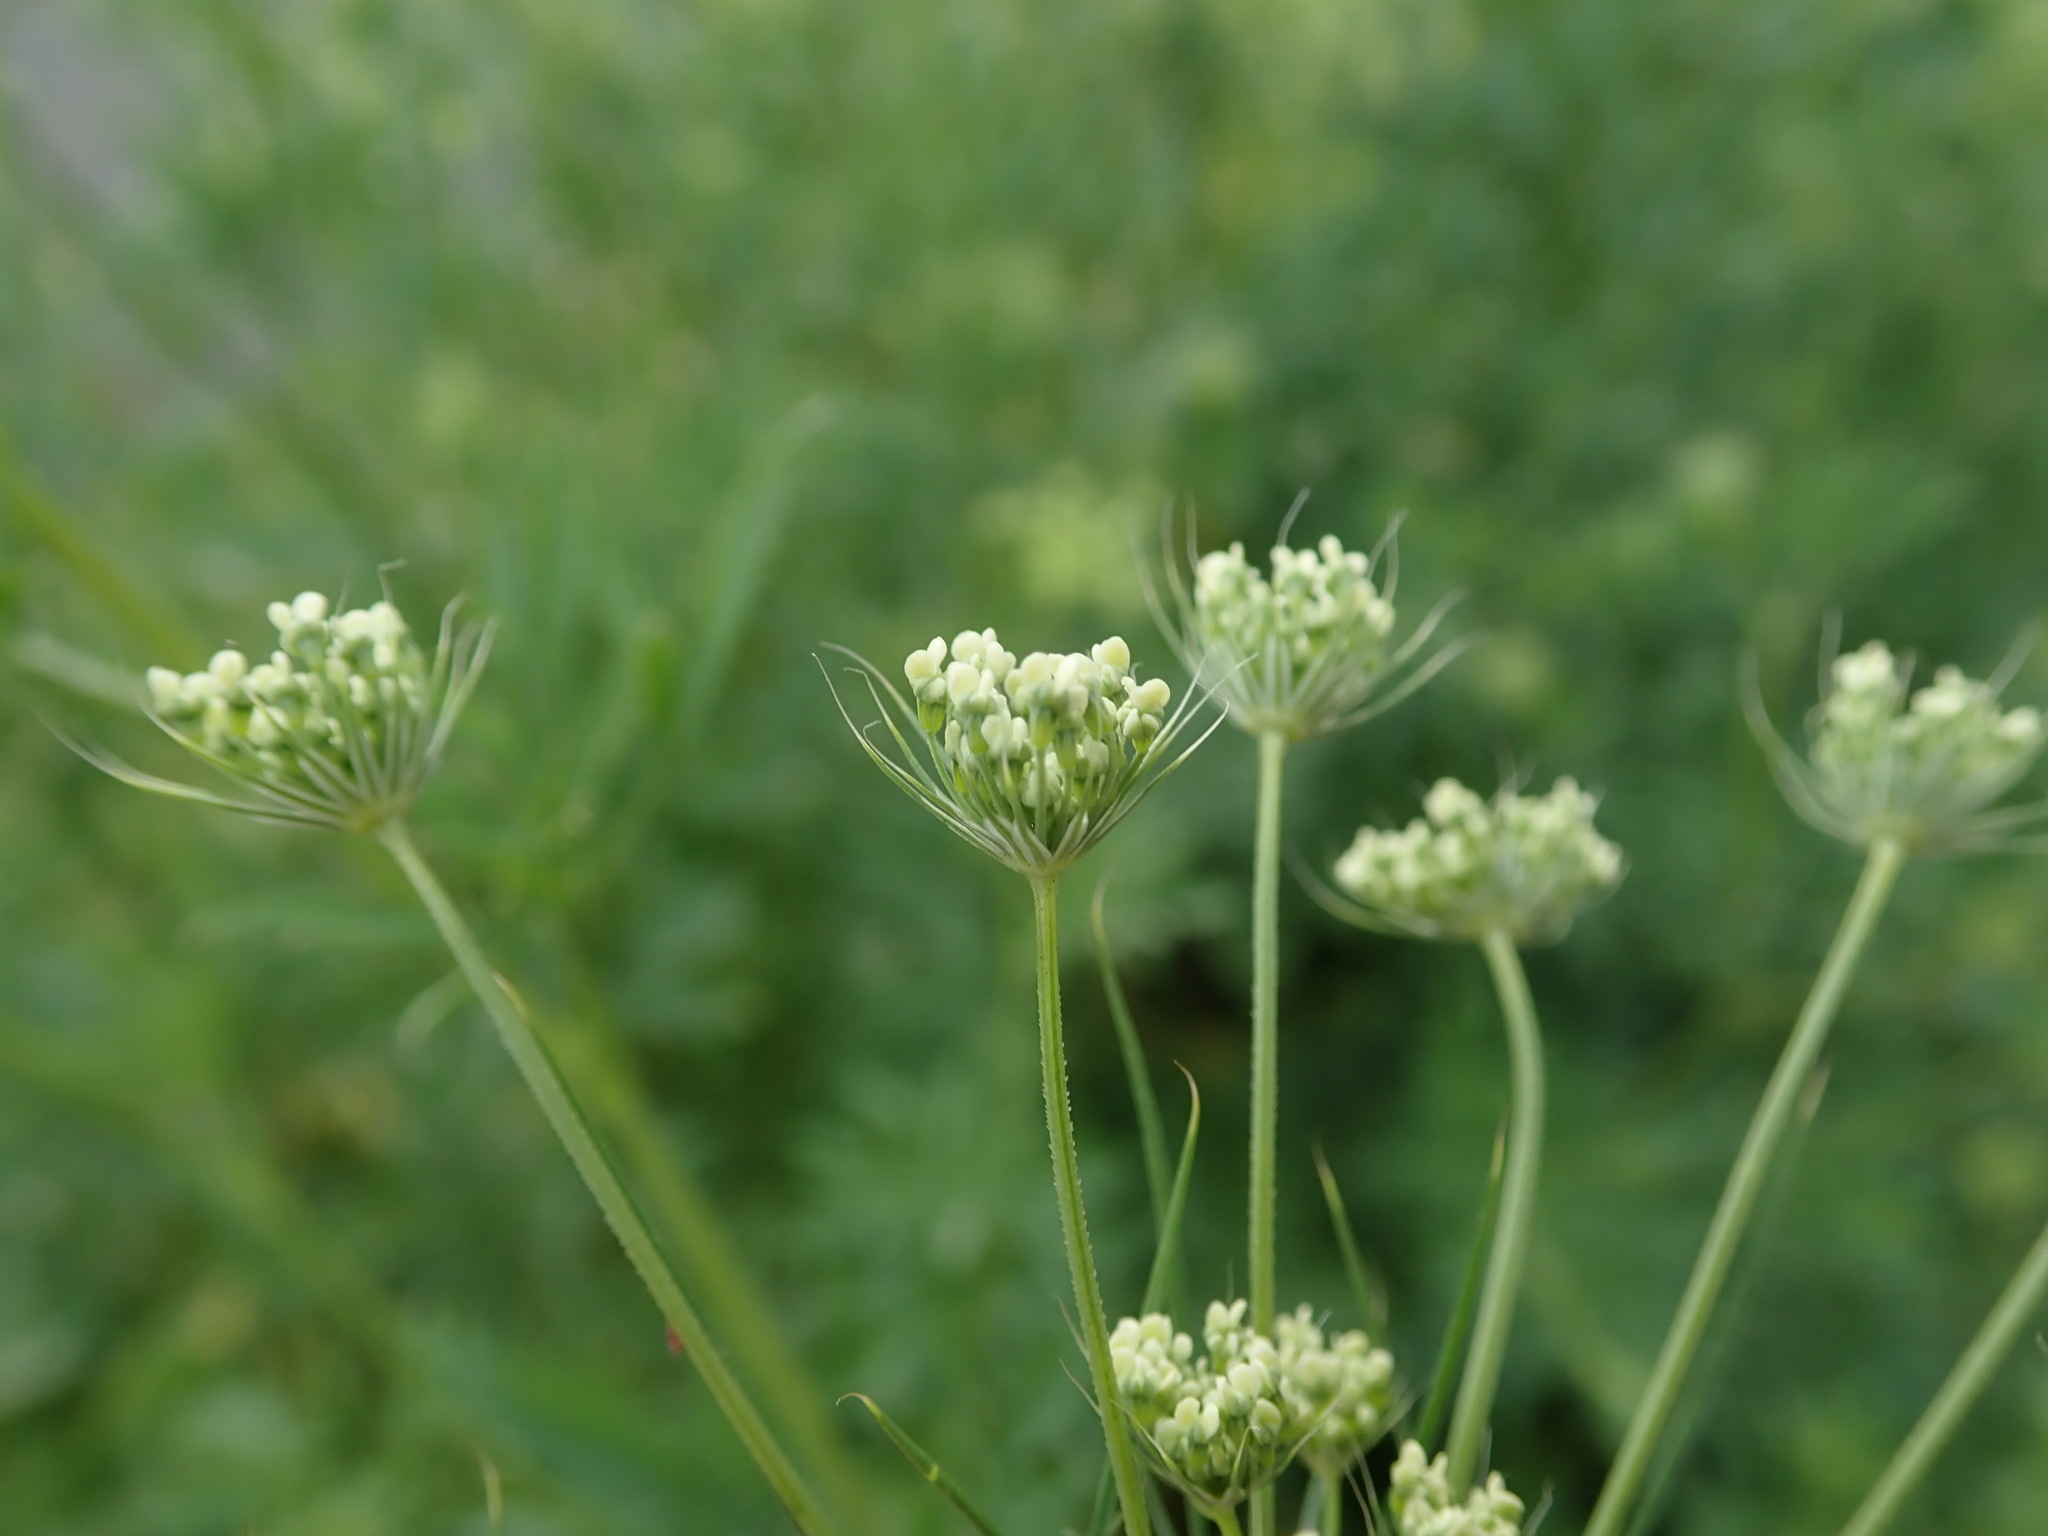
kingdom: Plantae
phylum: Tracheophyta
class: Magnoliopsida
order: Apiales
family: Apiaceae
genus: Ammi
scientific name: Ammi majus
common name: Bullwort
